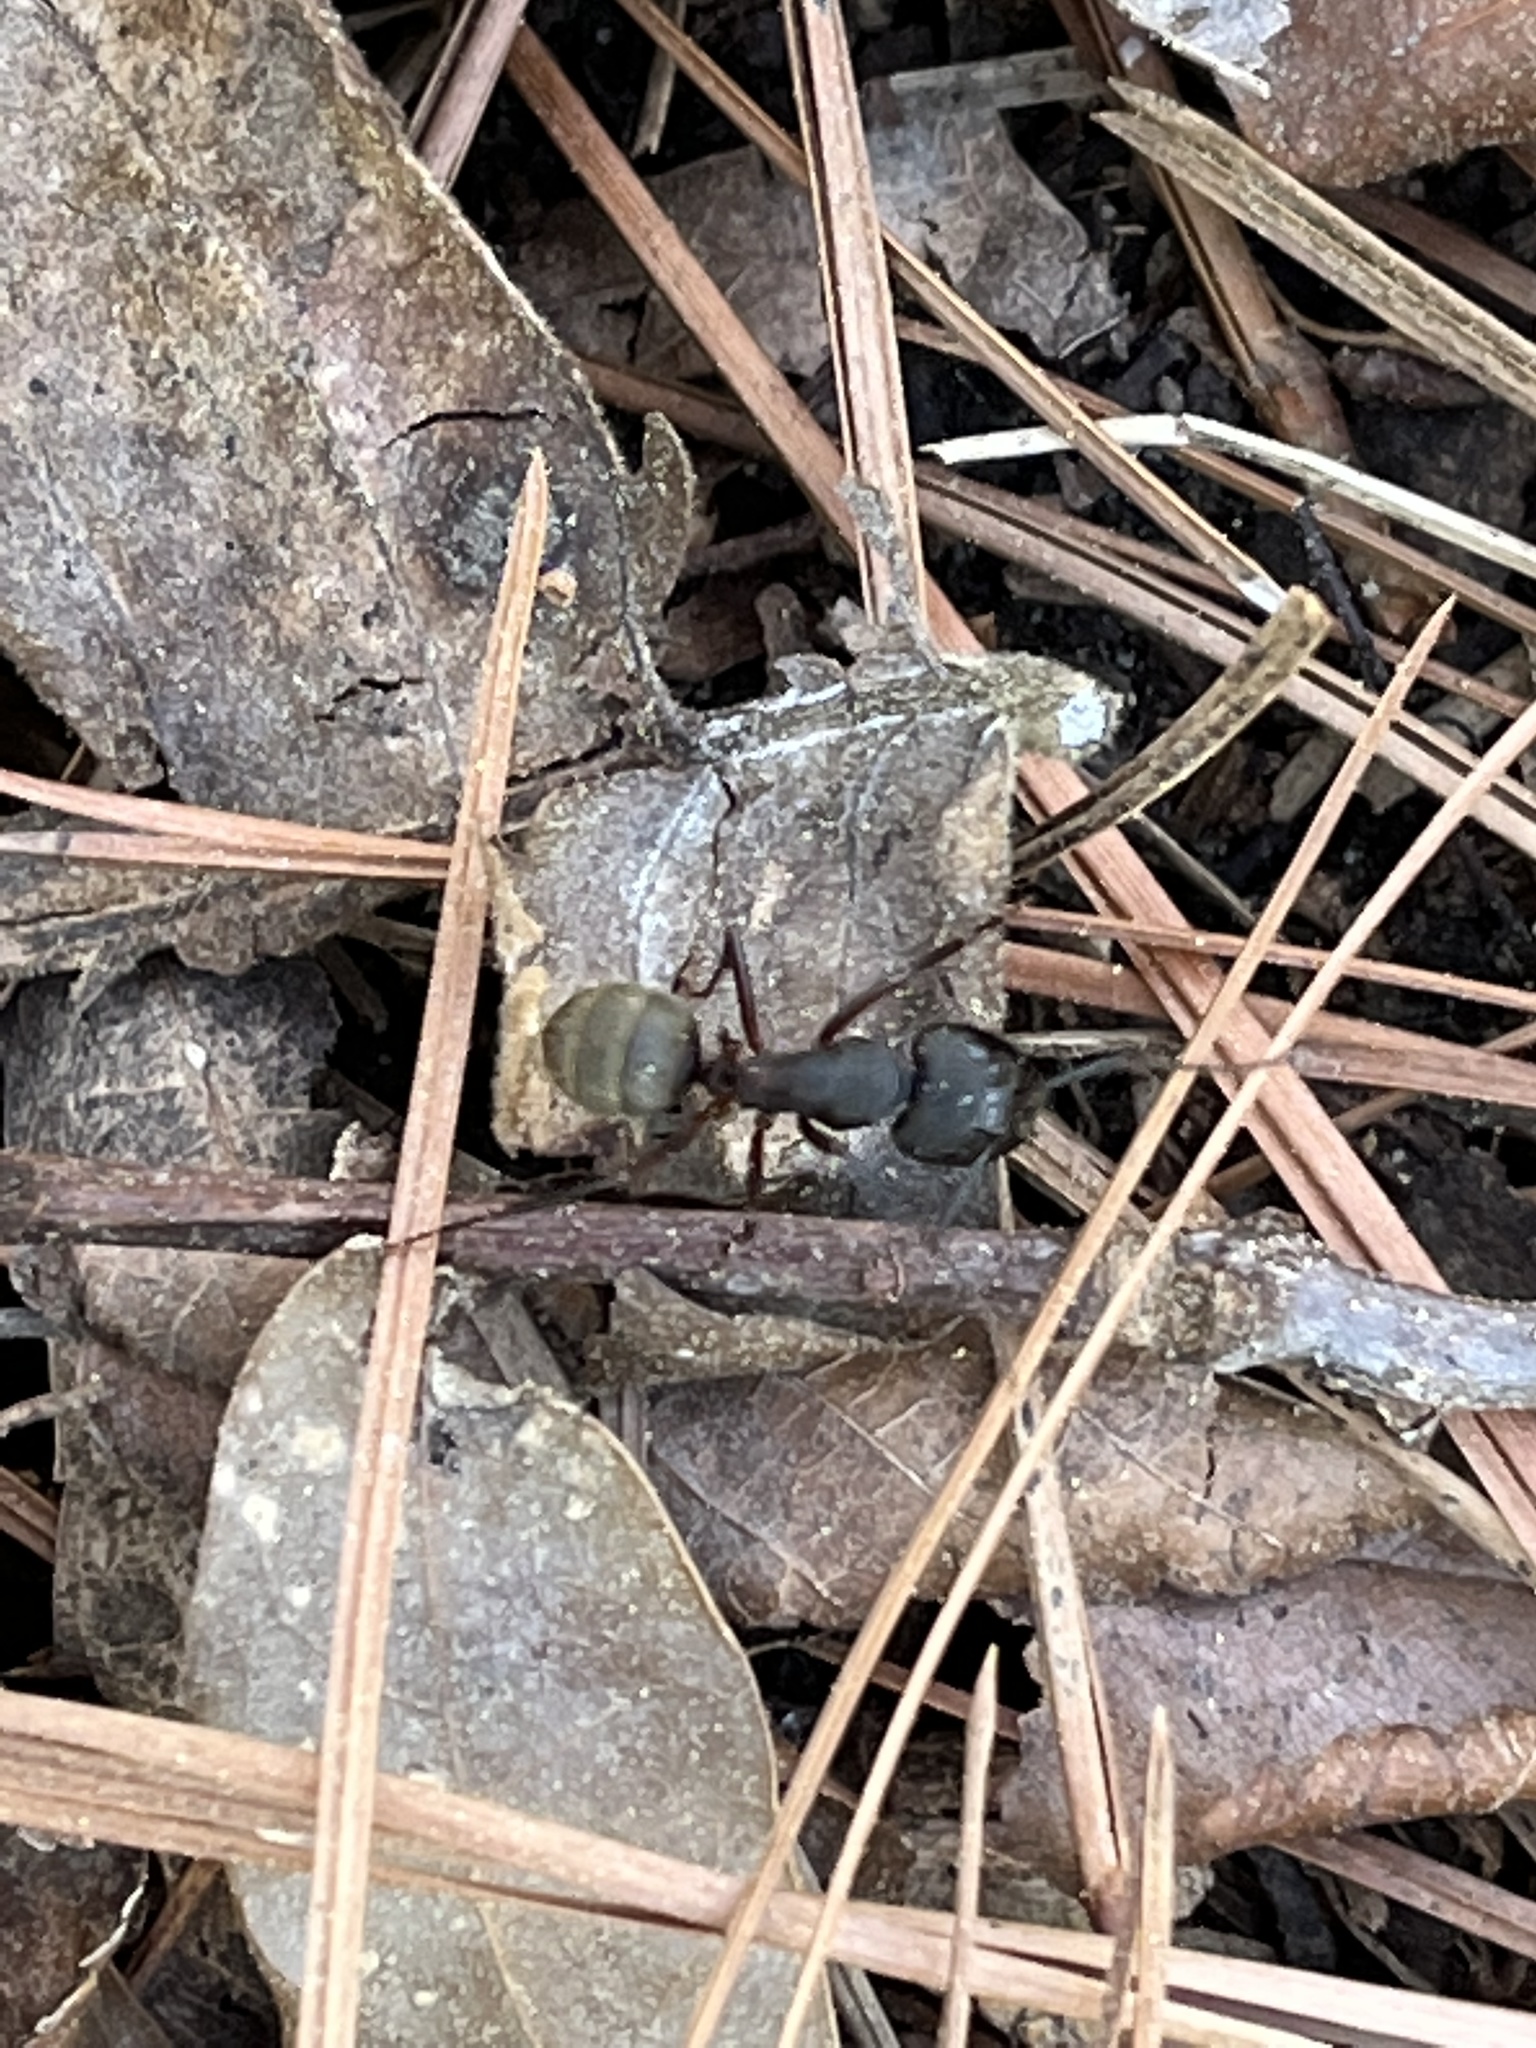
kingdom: Animalia
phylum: Arthropoda
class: Insecta
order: Hymenoptera
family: Formicidae
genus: Camponotus
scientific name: Camponotus chromaiodes
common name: Red carpenter ant
